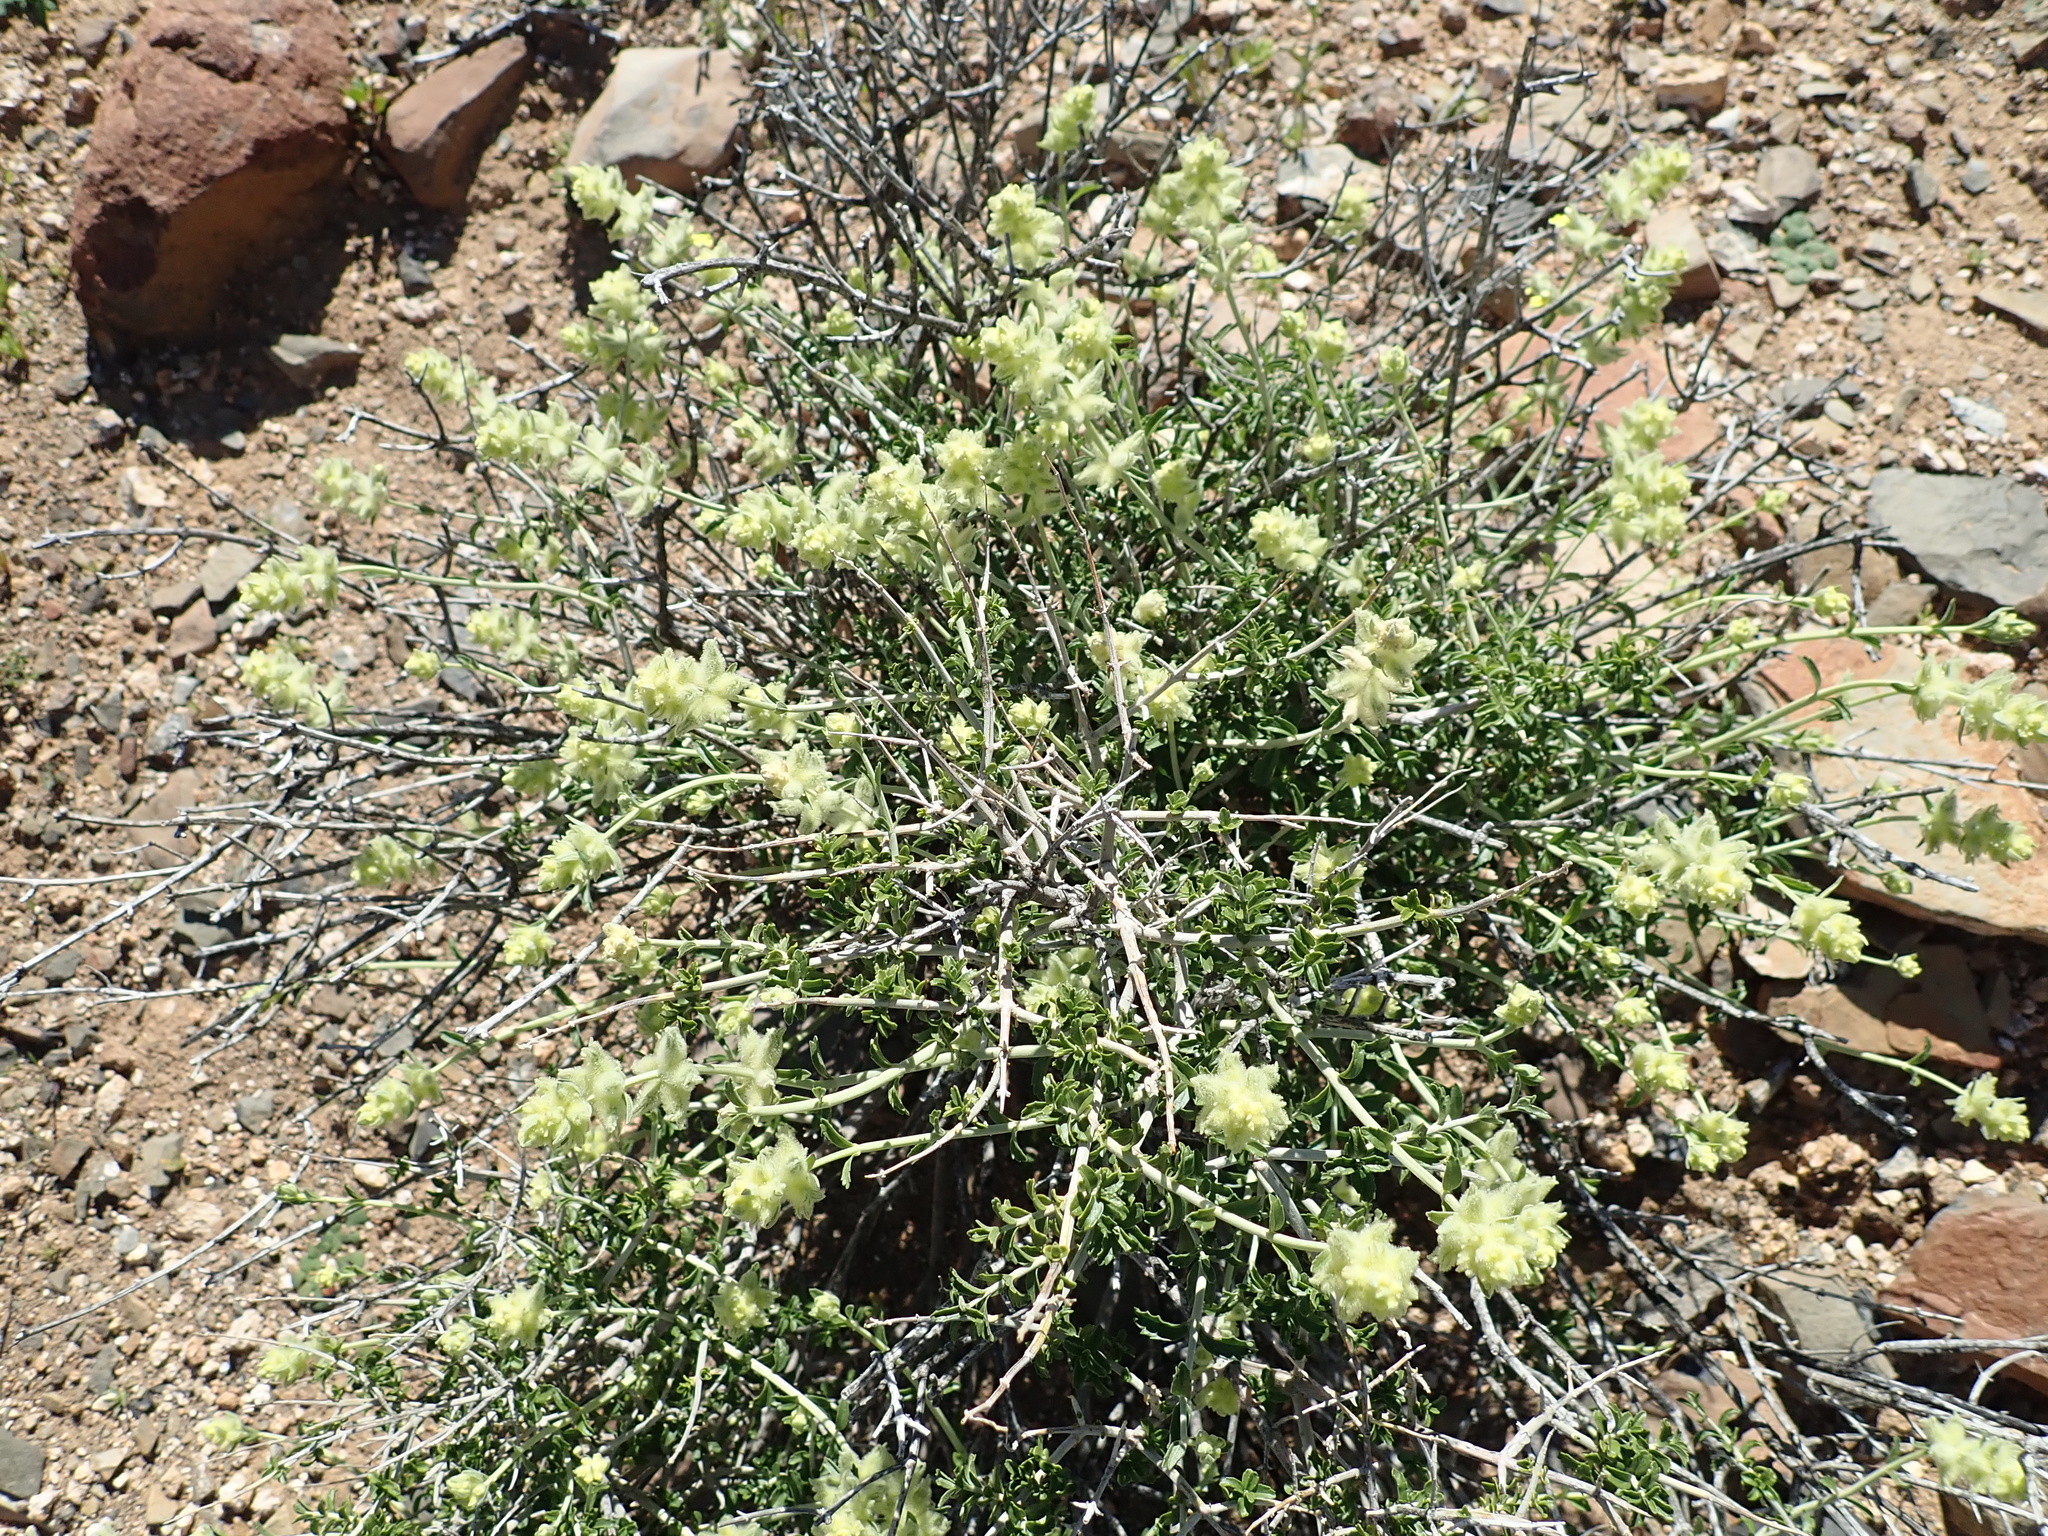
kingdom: Plantae
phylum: Tracheophyta
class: Magnoliopsida
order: Lamiales
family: Lamiaceae
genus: Stachys
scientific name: Stachys aurea
